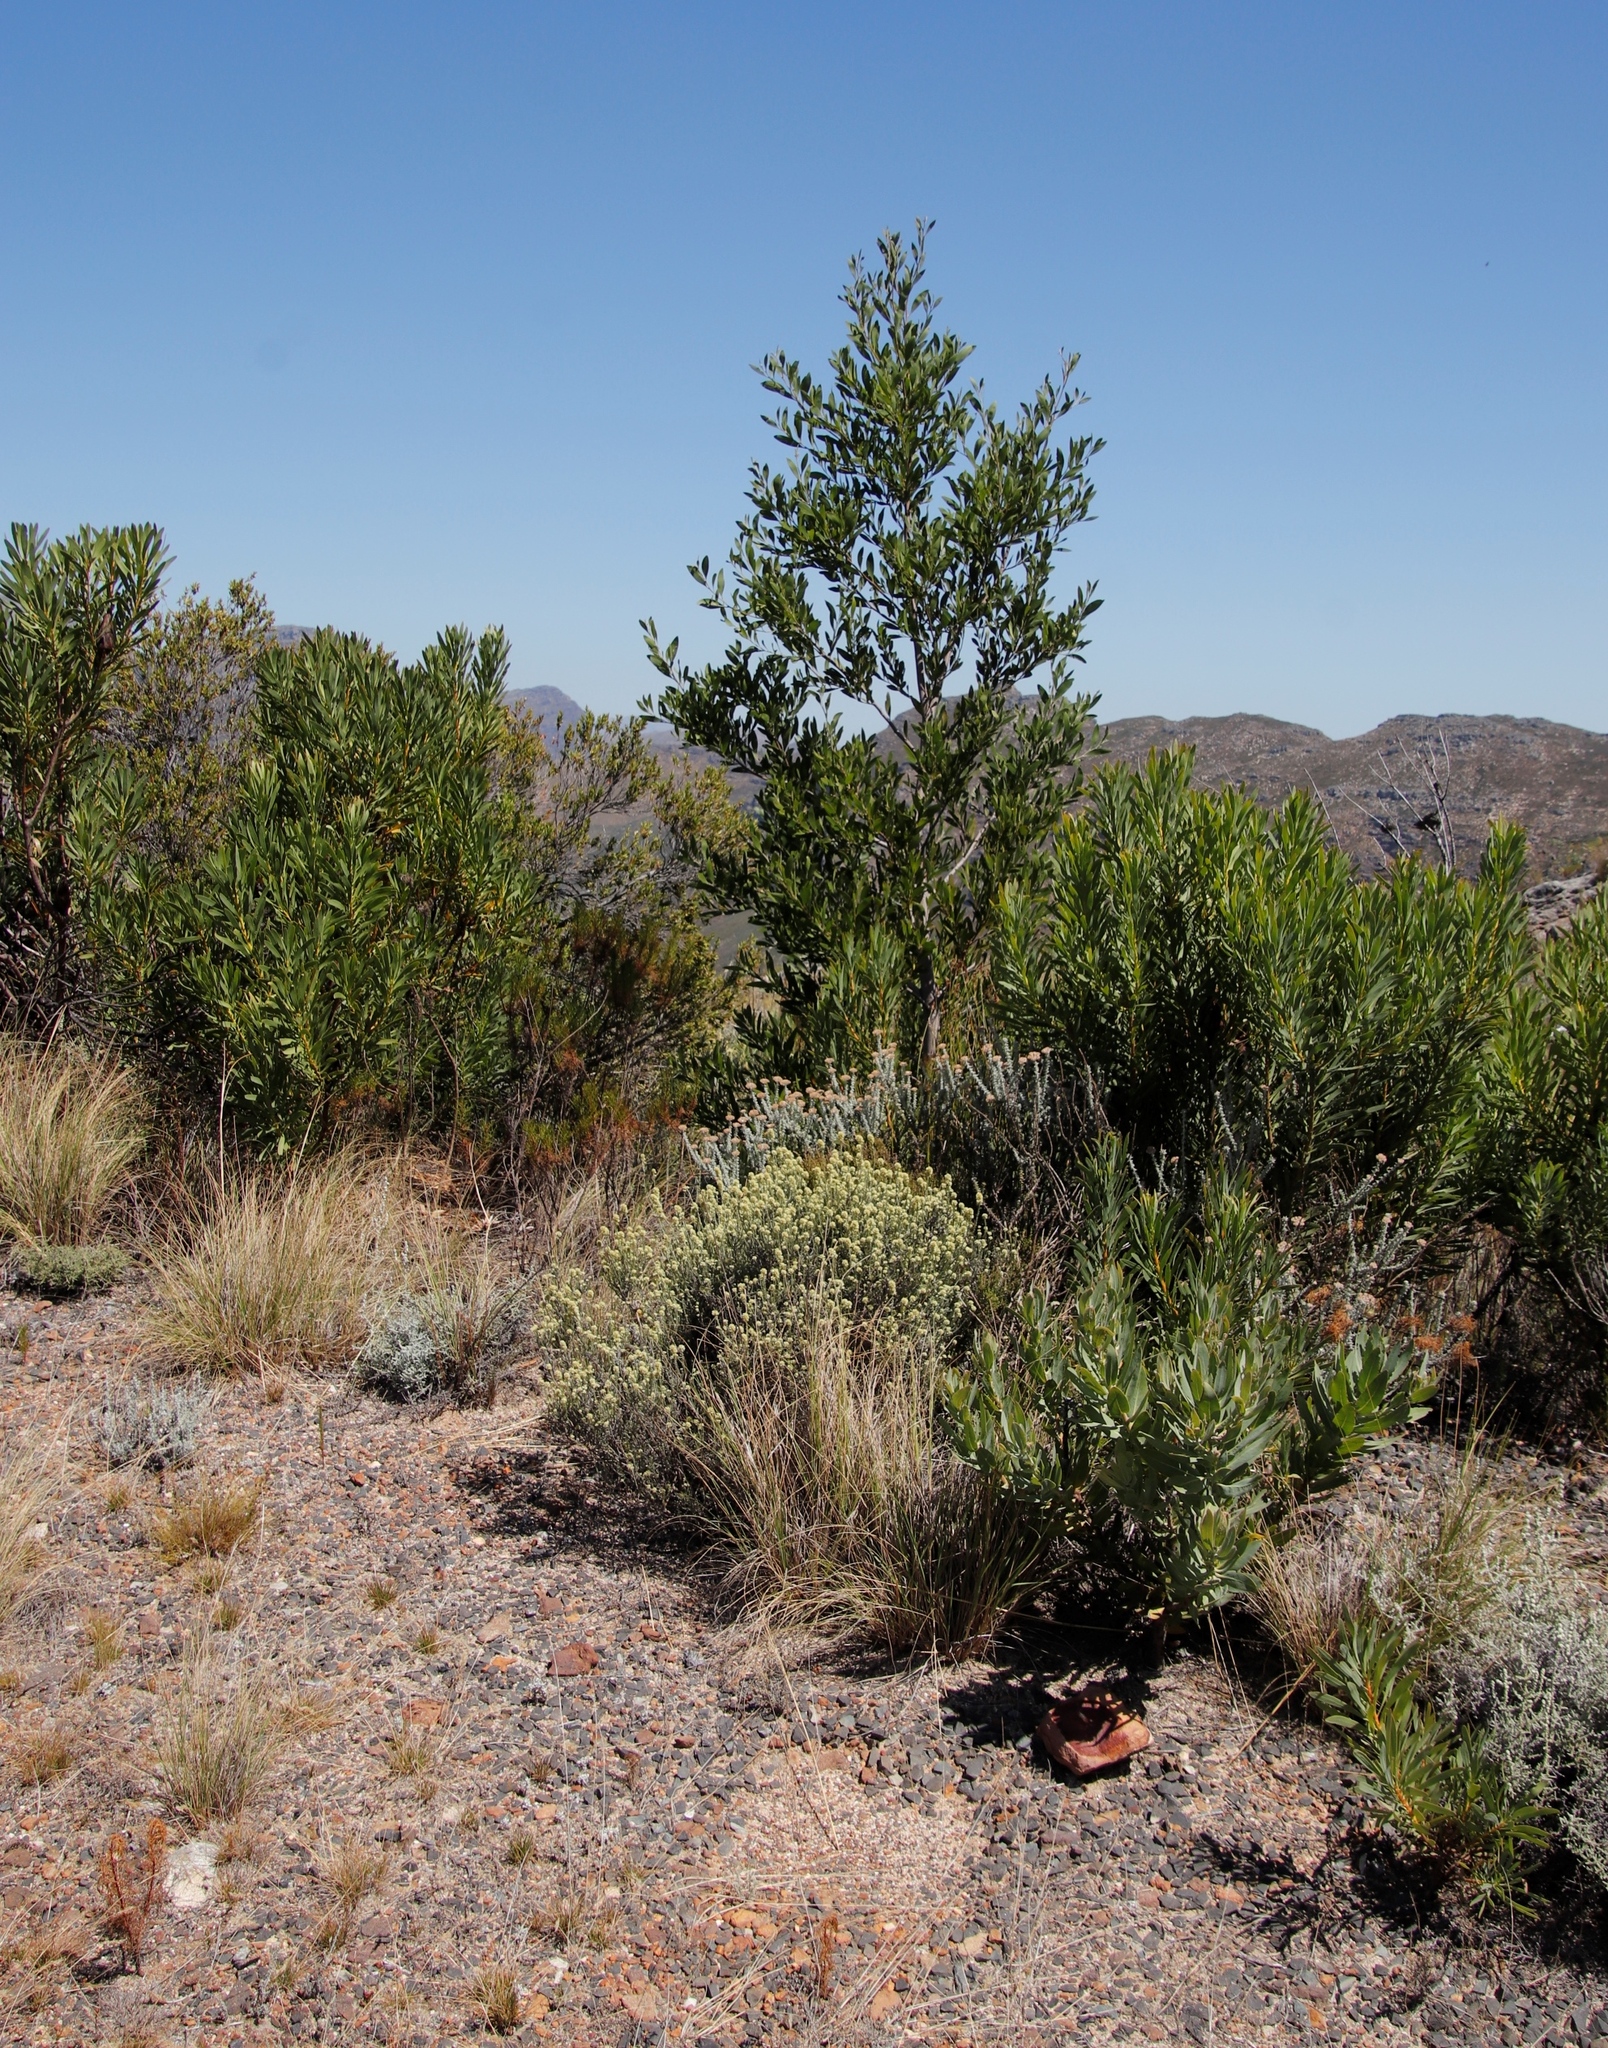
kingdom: Plantae
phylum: Tracheophyta
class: Magnoliopsida
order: Proteales
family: Proteaceae
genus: Protea
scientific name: Protea repens
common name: Sugarbush
